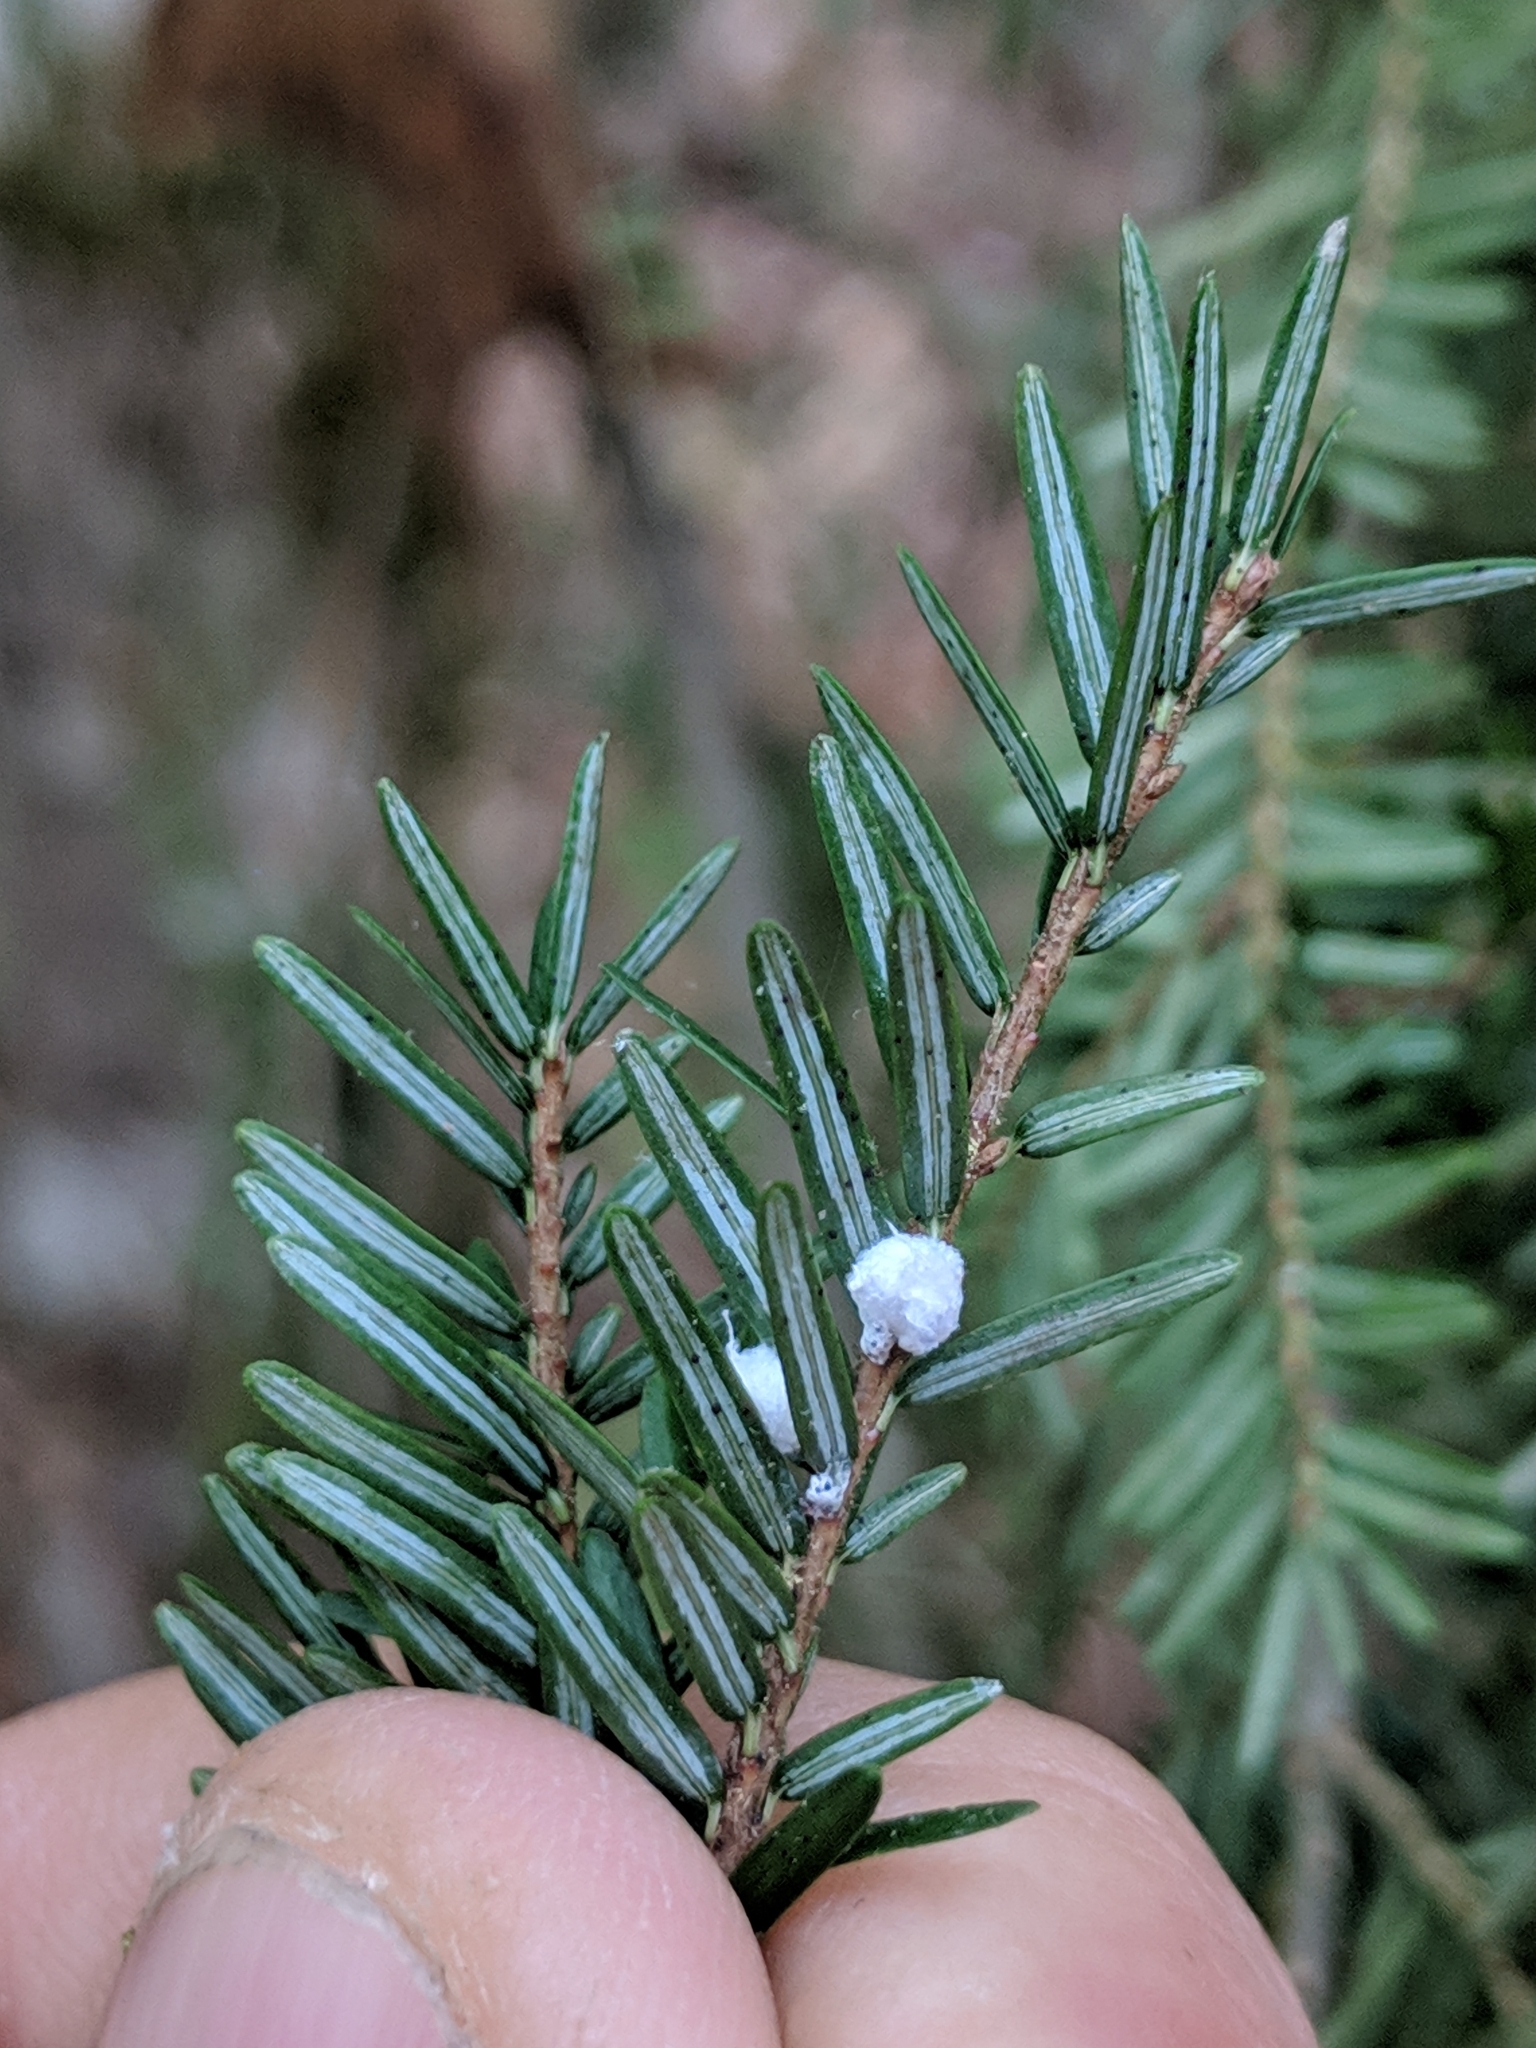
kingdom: Animalia
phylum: Arthropoda
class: Insecta
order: Hemiptera
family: Adelgidae
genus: Adelges
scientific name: Adelges tsugae
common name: Hemlock woolly adelgid
